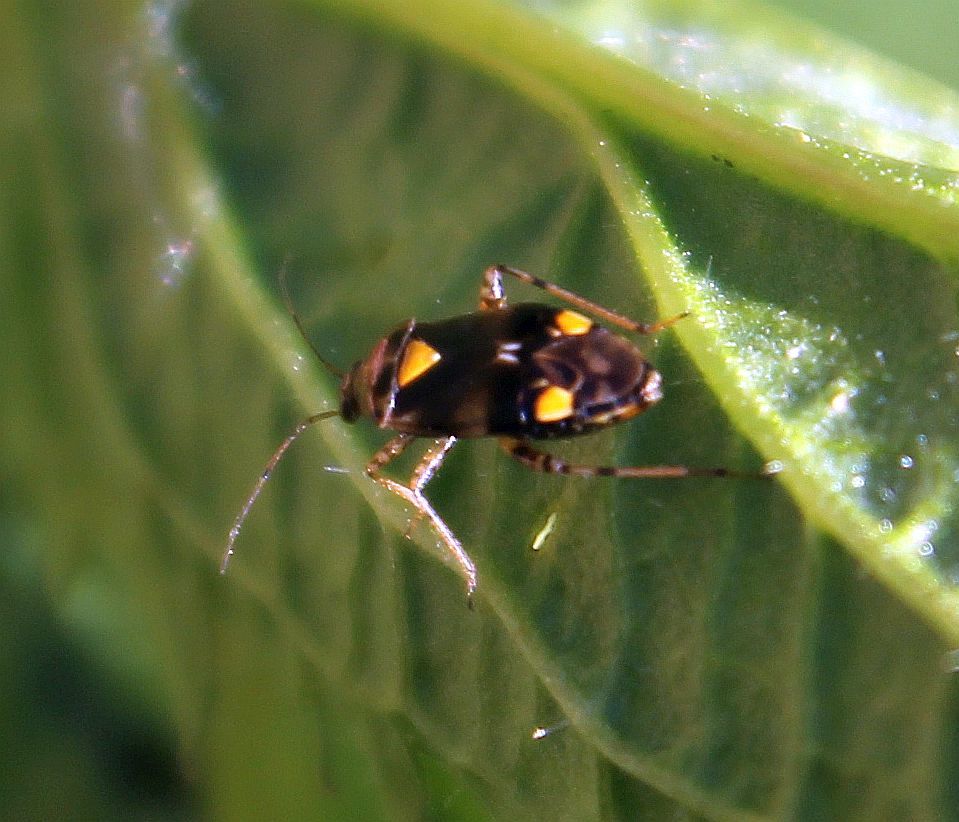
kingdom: Animalia
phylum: Arthropoda
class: Insecta
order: Hemiptera
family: Miridae
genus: Liocoris
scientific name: Liocoris tripustulatus
